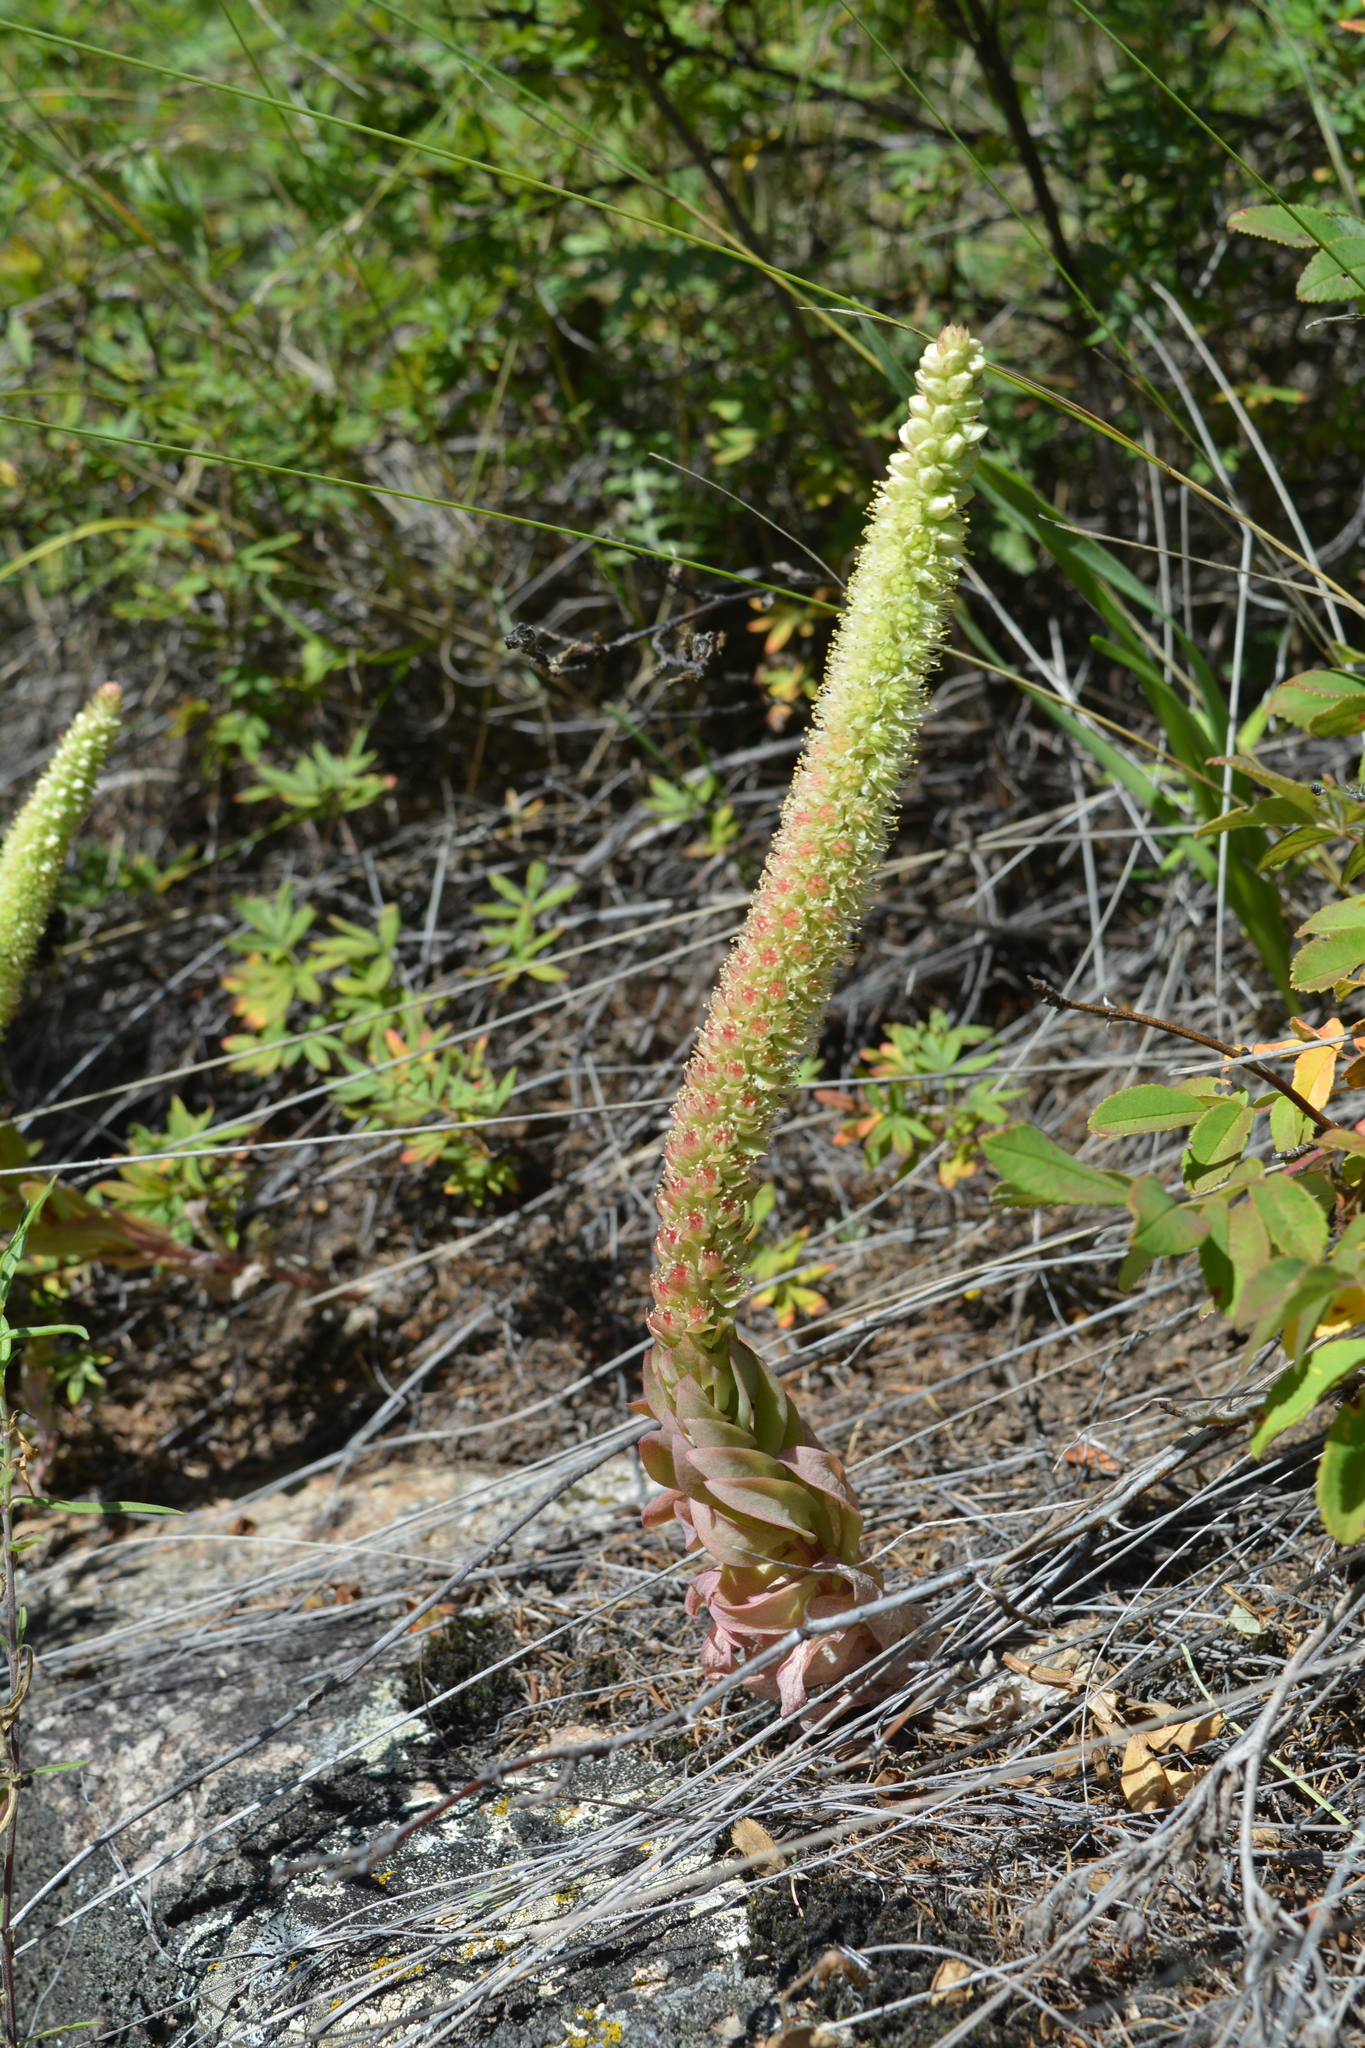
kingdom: Plantae
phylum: Tracheophyta
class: Magnoliopsida
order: Saxifragales
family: Crassulaceae
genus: Orostachys
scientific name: Orostachys spinosa
